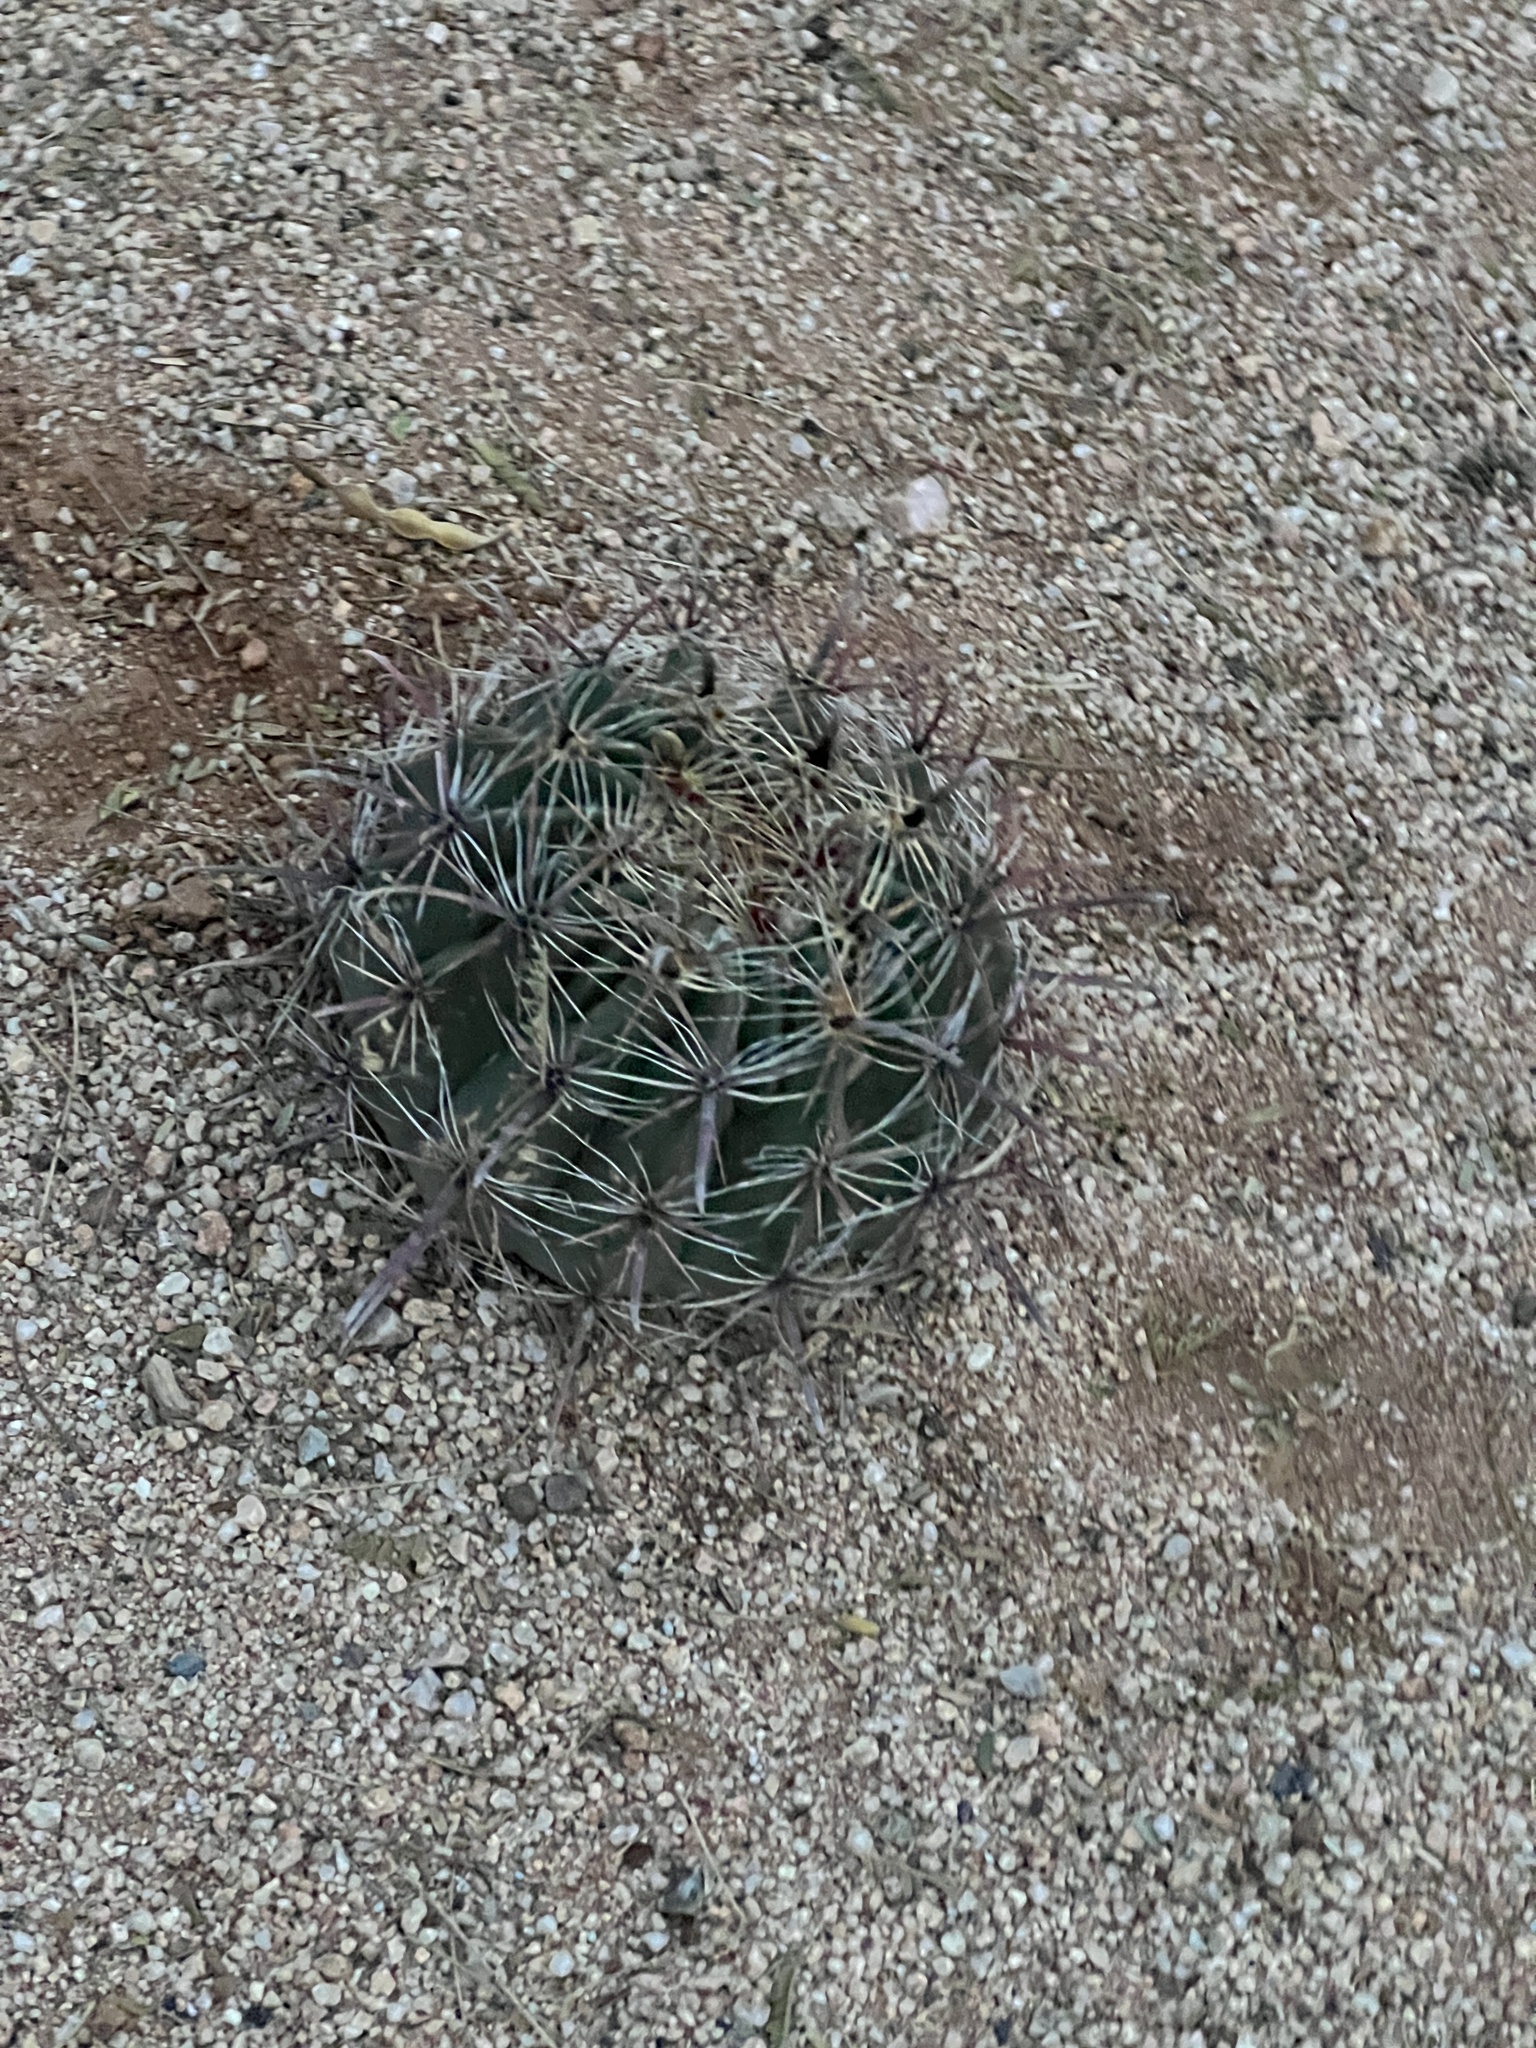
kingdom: Plantae
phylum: Tracheophyta
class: Magnoliopsida
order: Caryophyllales
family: Cactaceae
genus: Ferocactus
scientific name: Ferocactus wislizeni
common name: Candy barrel cactus
